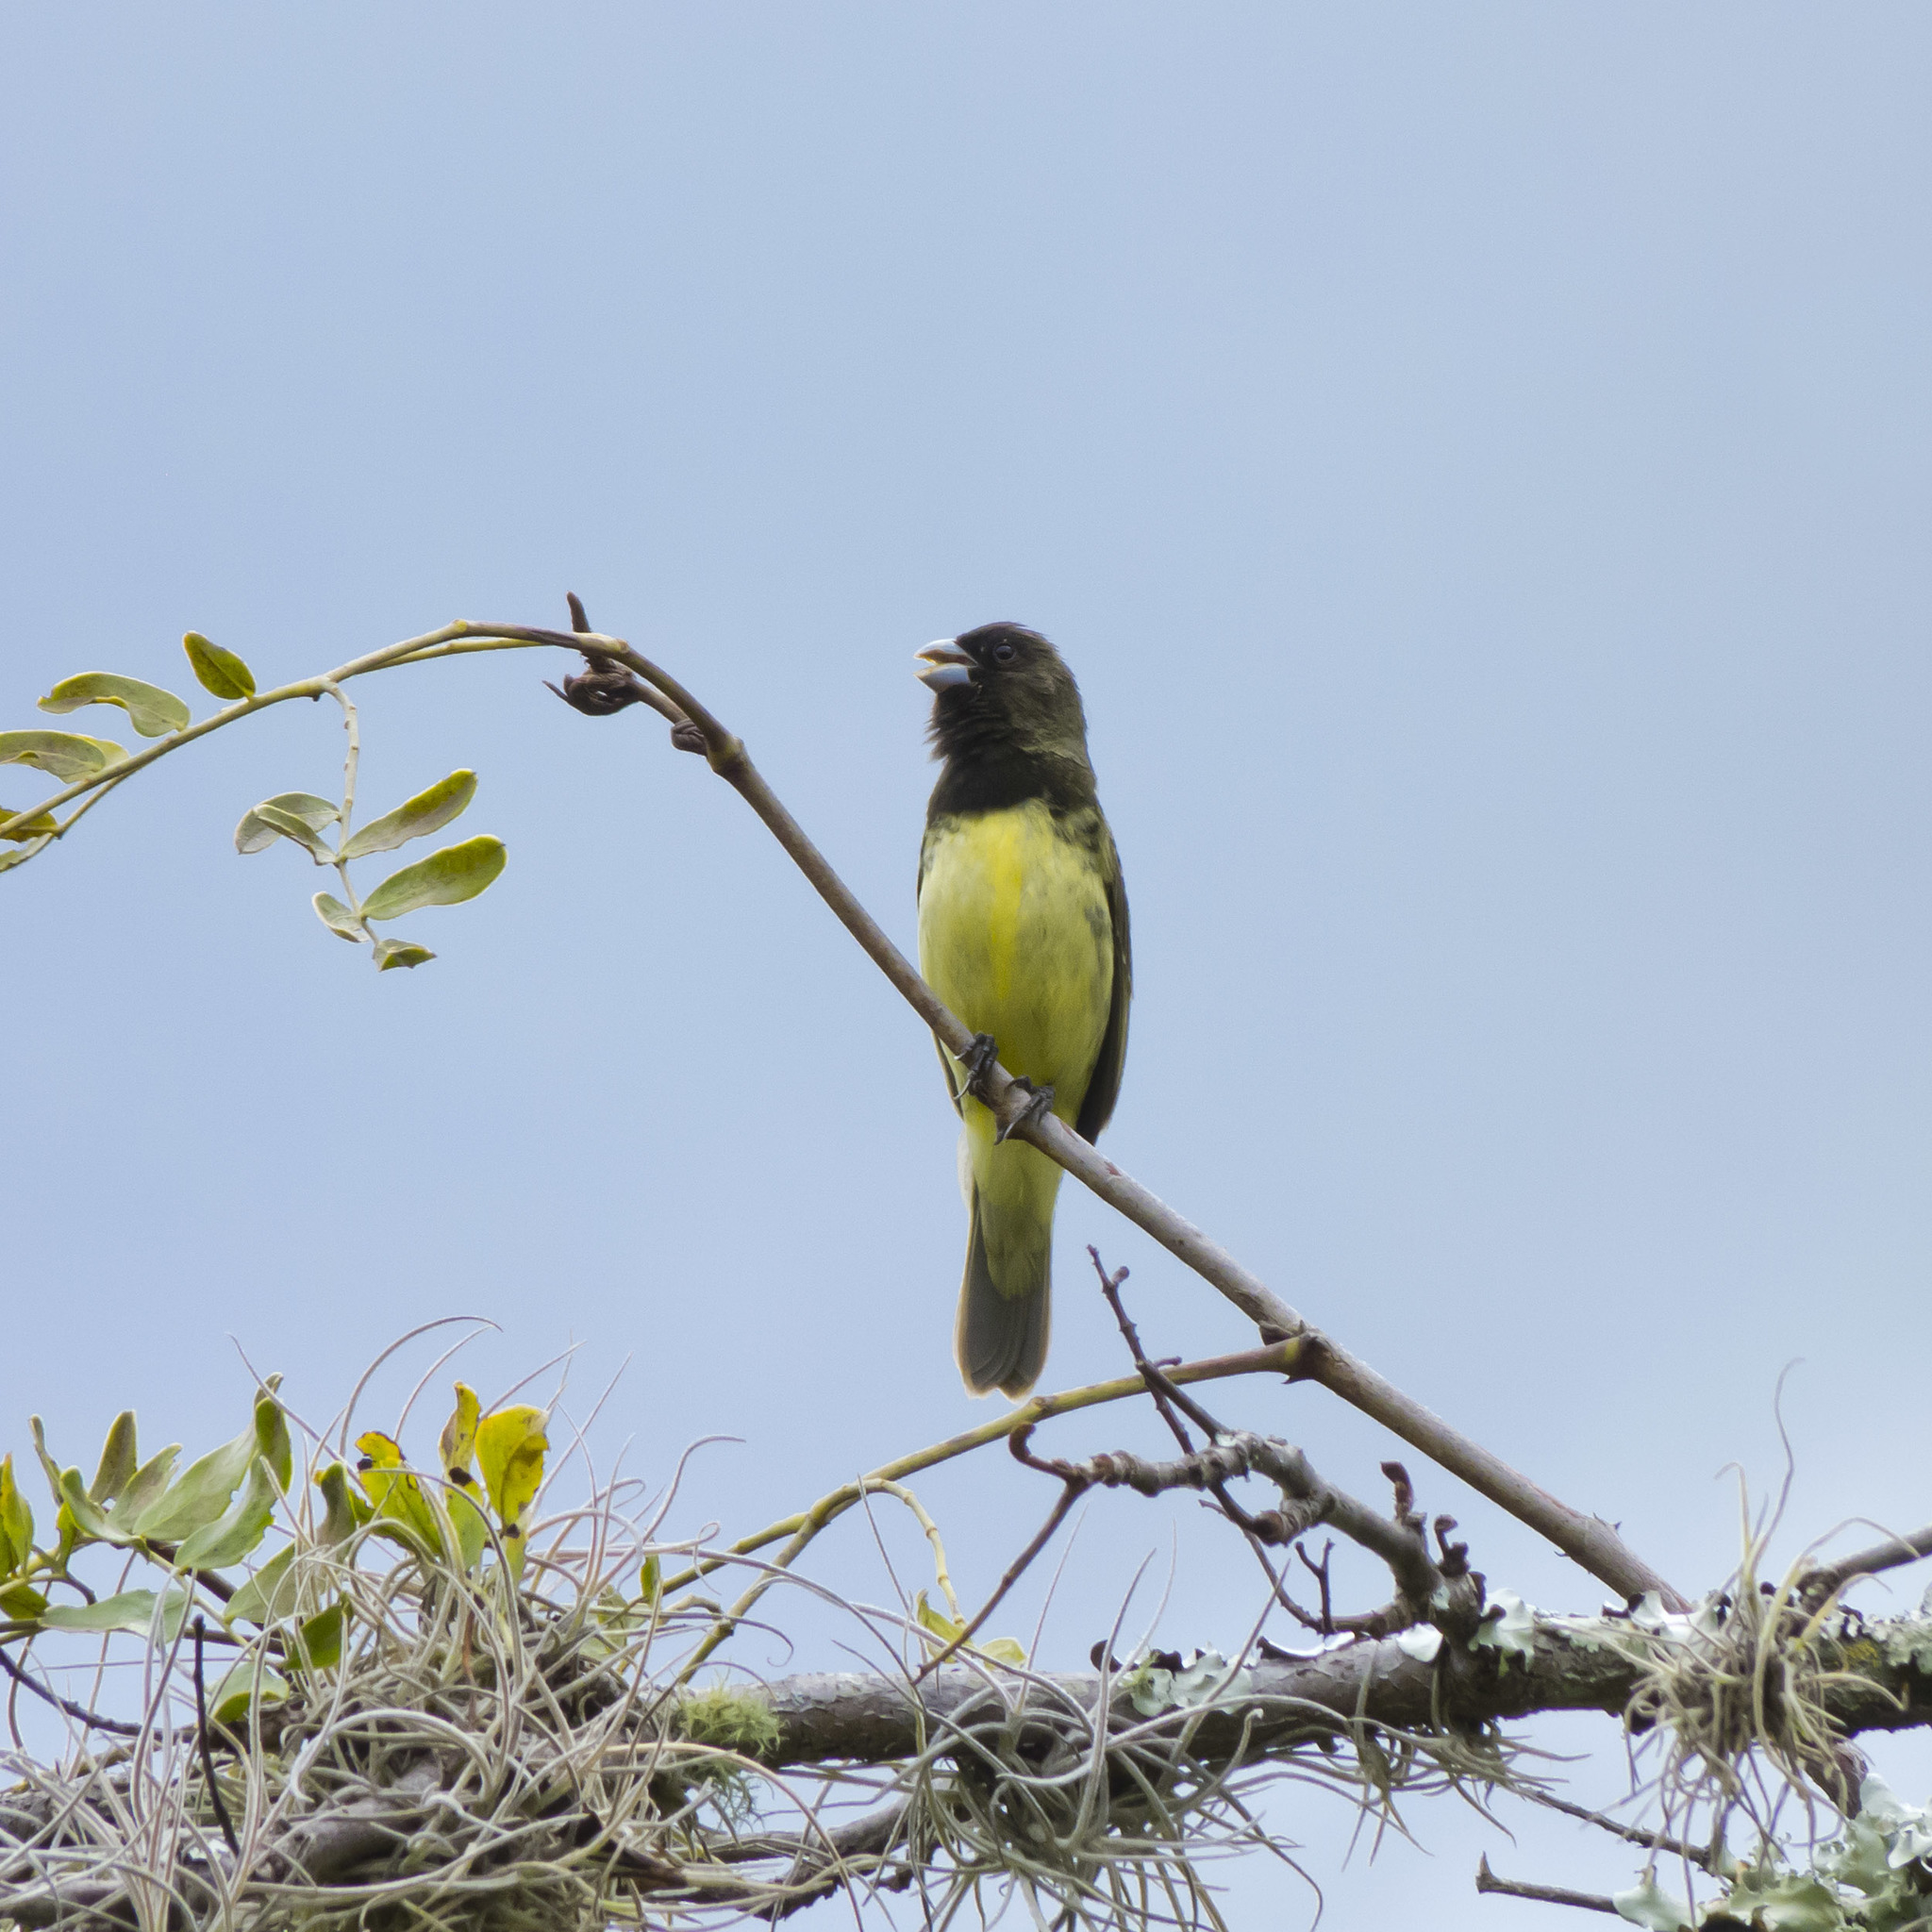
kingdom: Animalia
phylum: Chordata
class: Aves
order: Passeriformes
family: Thraupidae
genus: Sporophila
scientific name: Sporophila nigricollis
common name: Yellow-bellied seedeater
